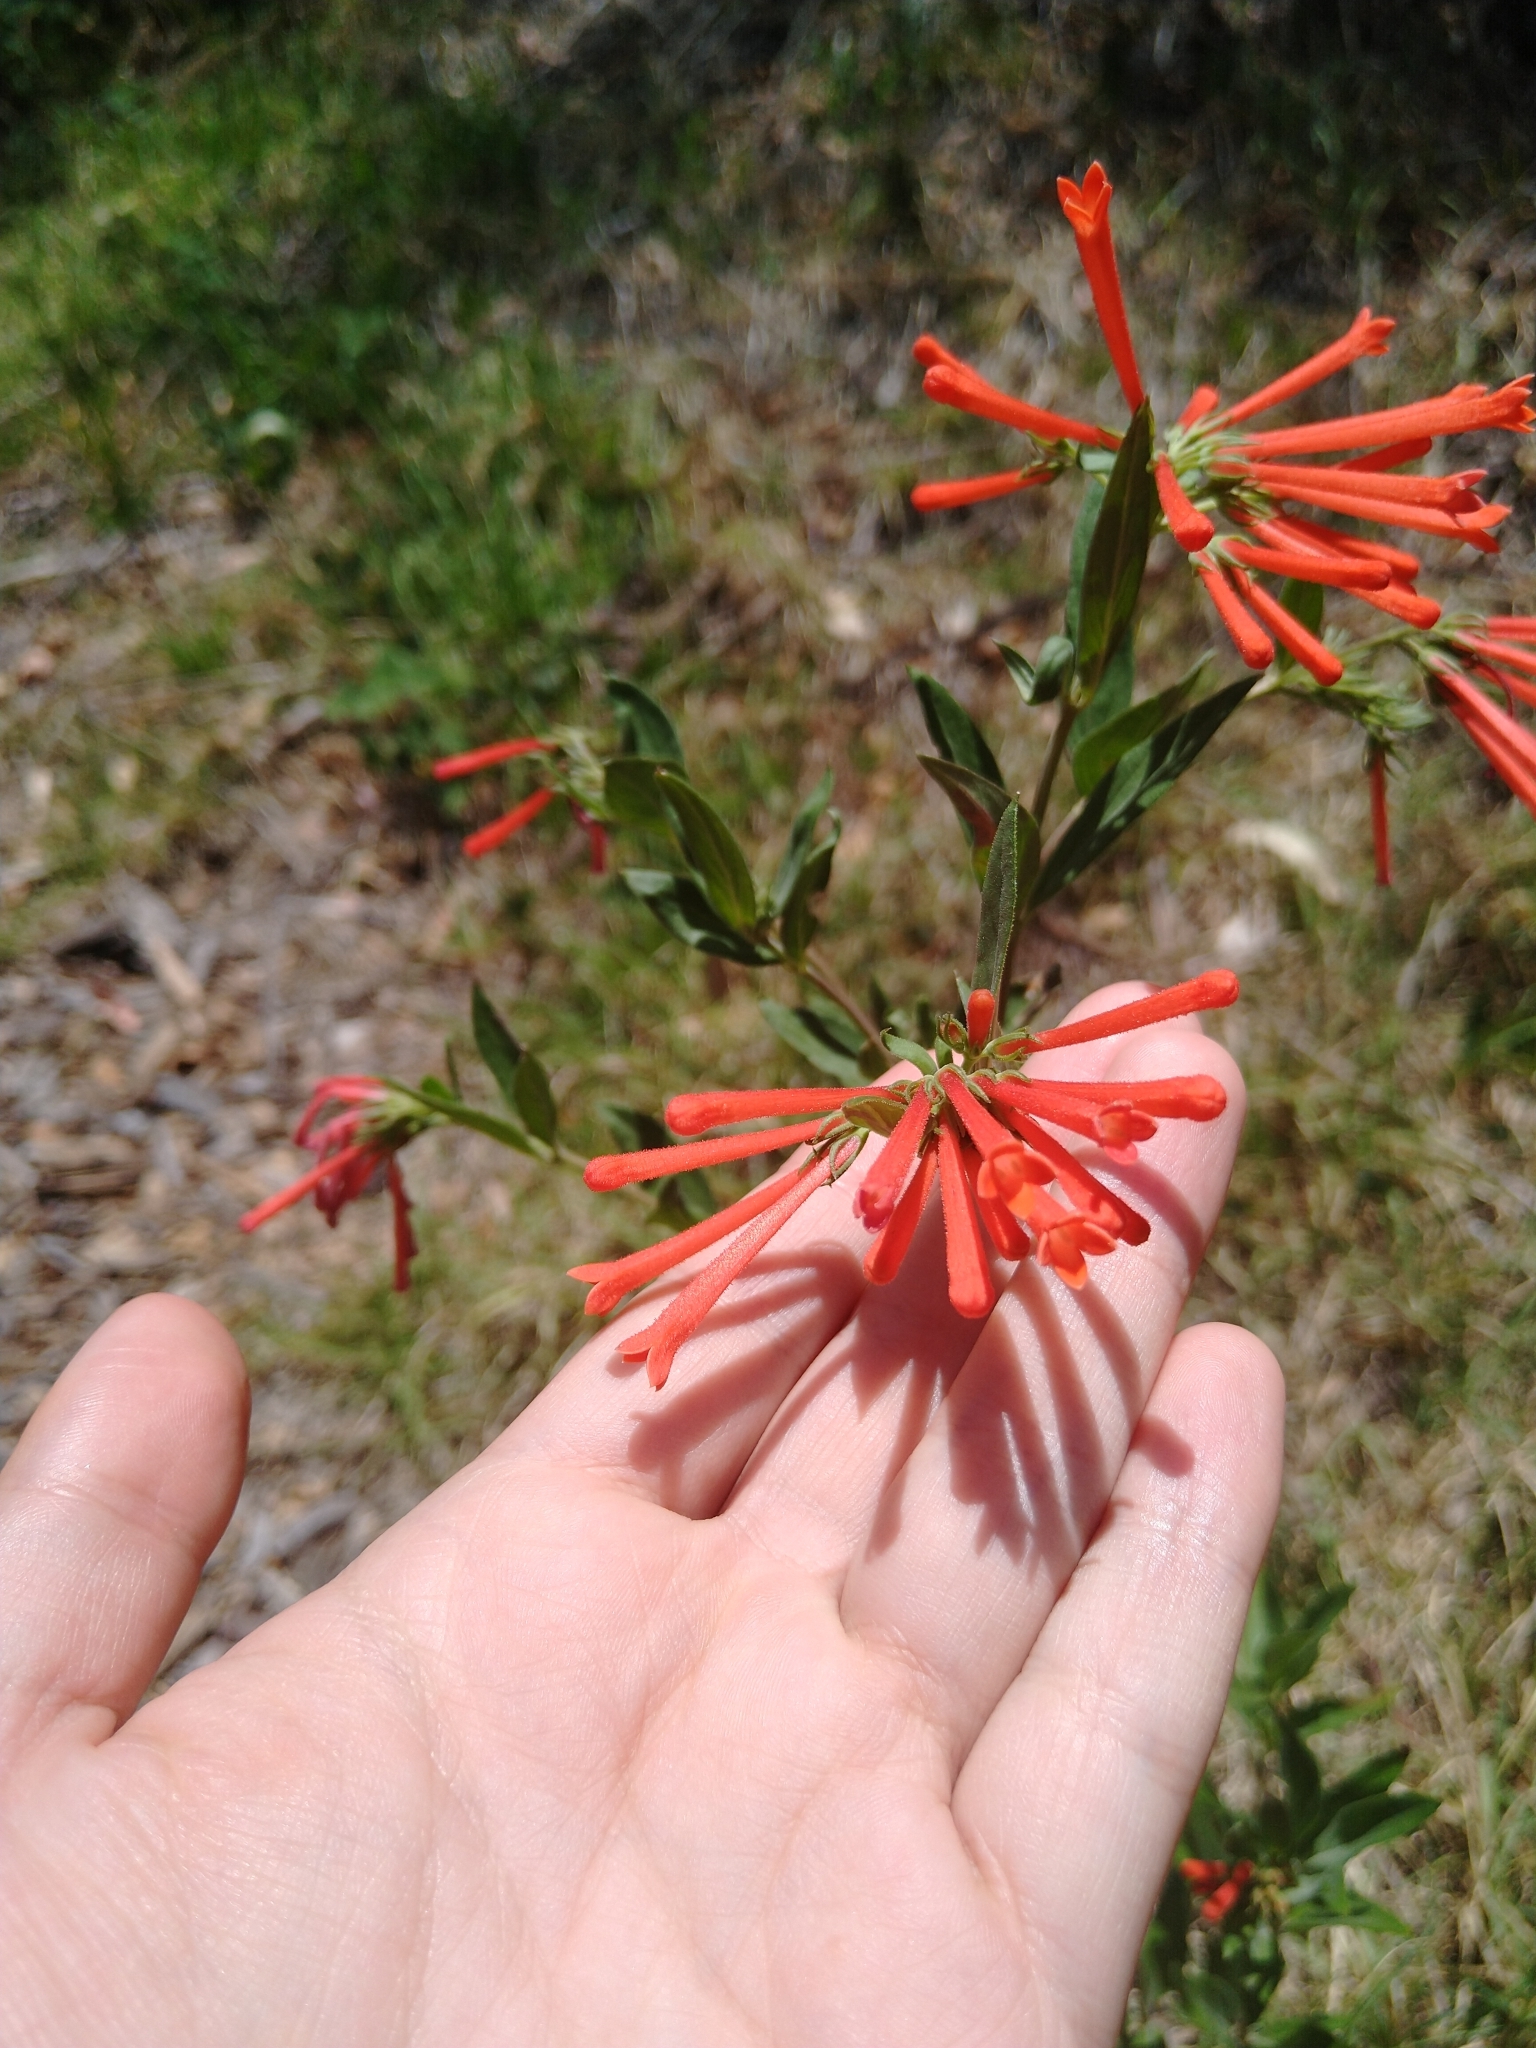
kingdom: Plantae
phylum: Tracheophyta
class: Magnoliopsida
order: Gentianales
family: Rubiaceae
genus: Bouvardia
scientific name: Bouvardia ternifolia
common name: Scarlet bouvardia
